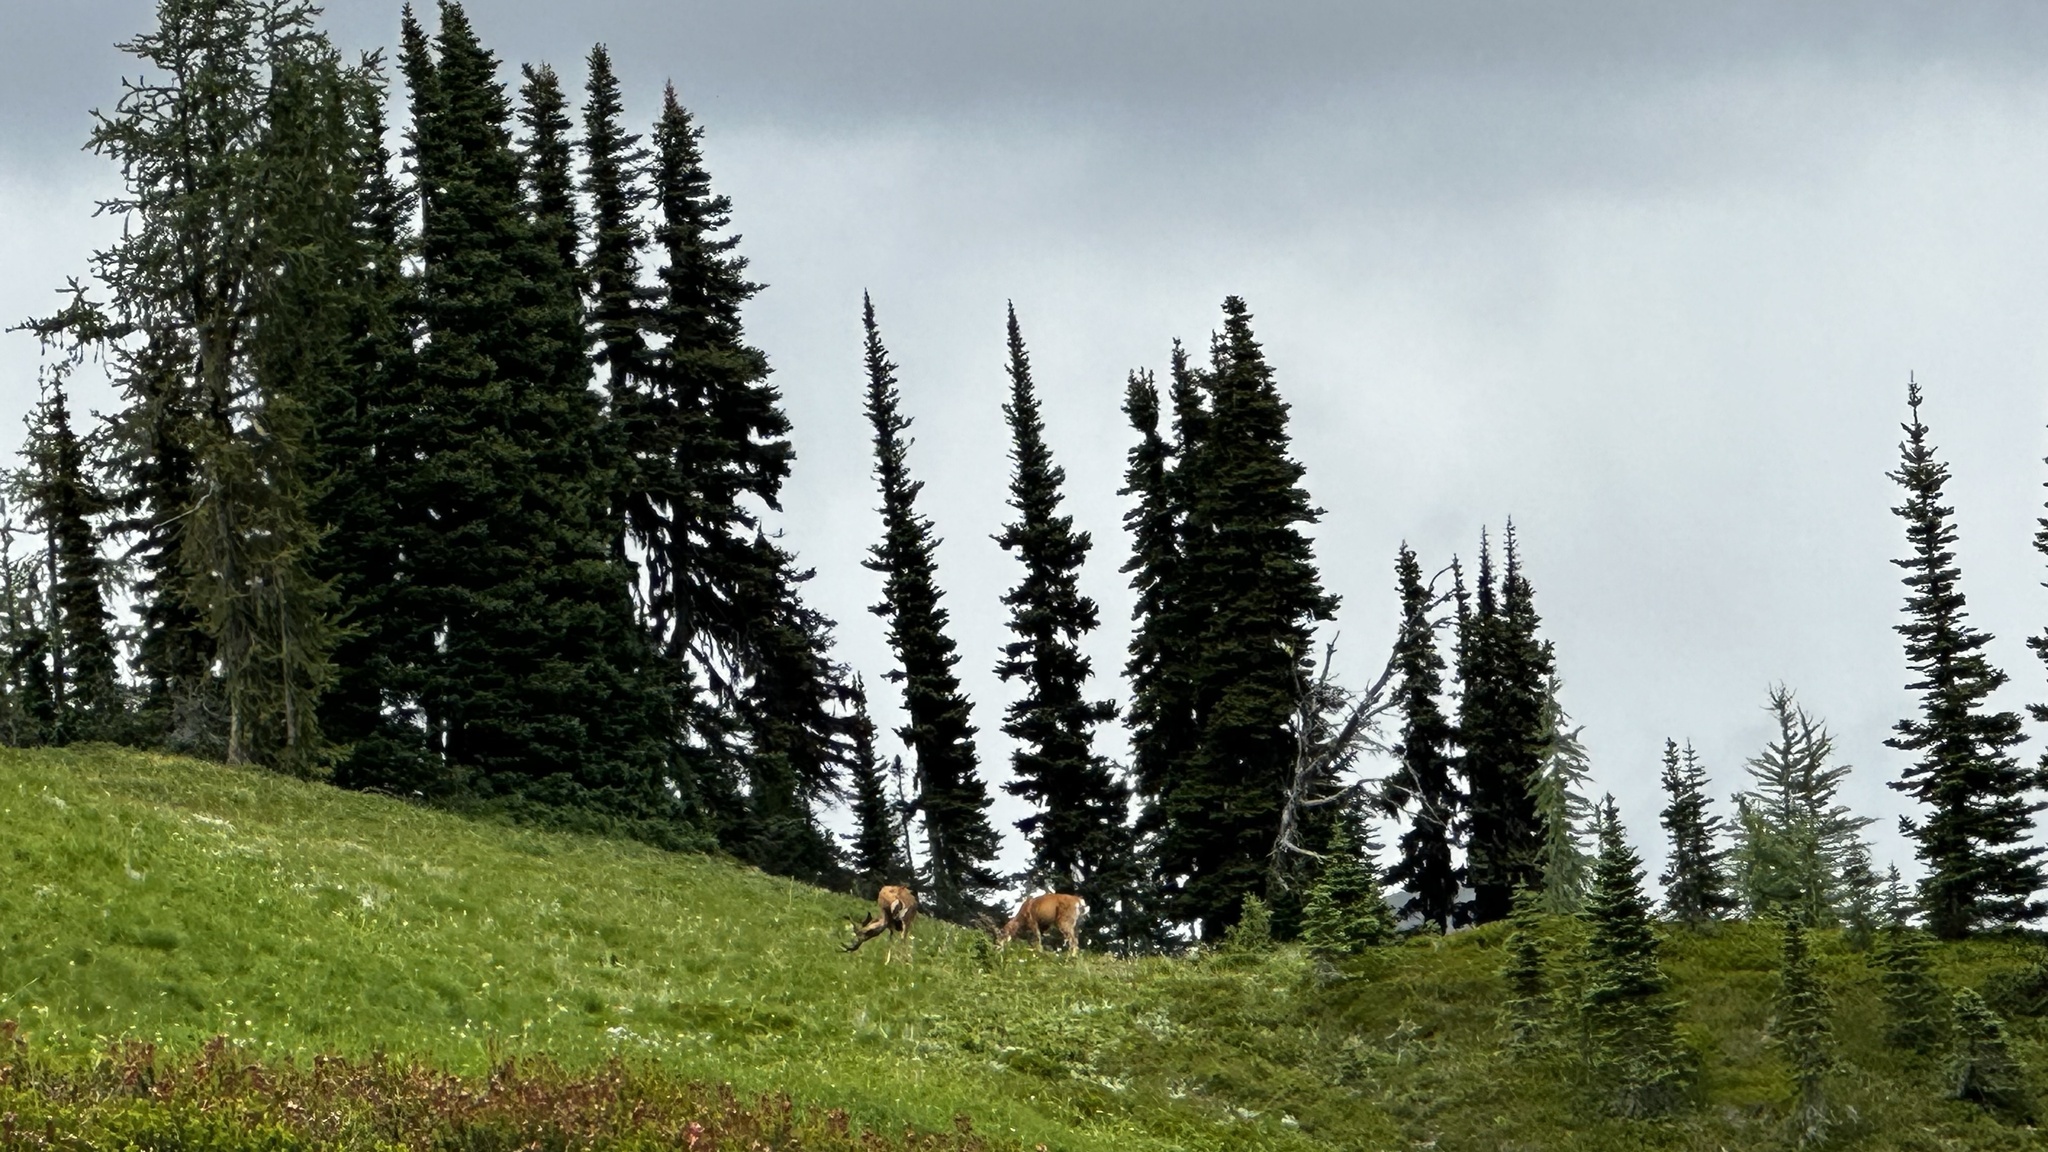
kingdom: Animalia
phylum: Chordata
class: Mammalia
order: Artiodactyla
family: Cervidae
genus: Odocoileus
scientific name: Odocoileus hemionus
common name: Mule deer
